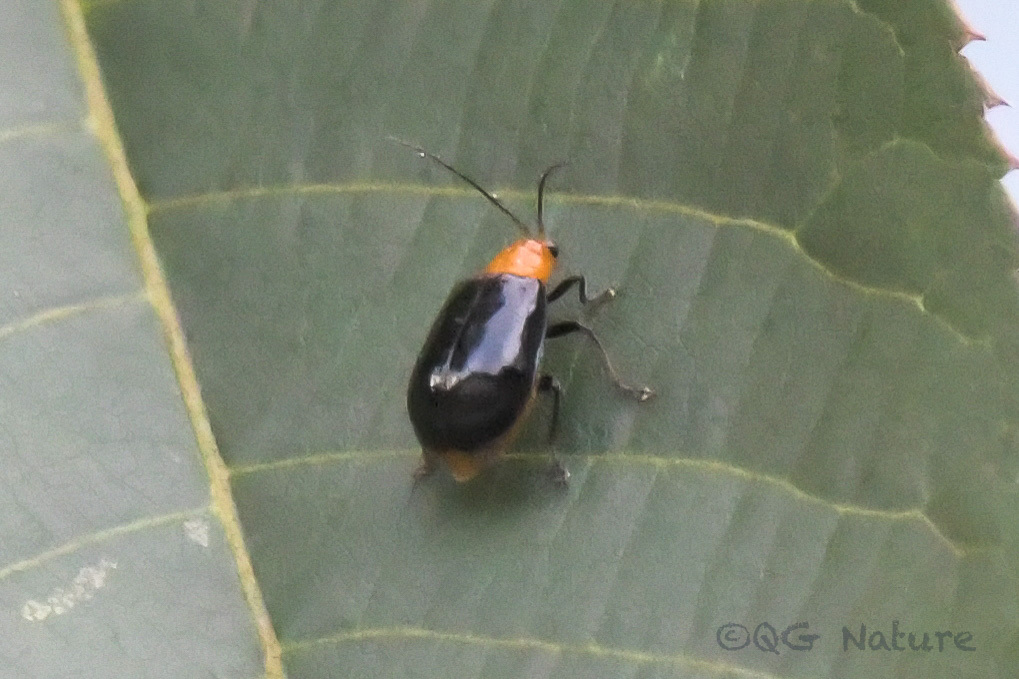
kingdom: Animalia
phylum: Arthropoda
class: Insecta
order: Coleoptera
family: Chrysomelidae
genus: Aulacophora
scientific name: Aulacophora nigripennis
